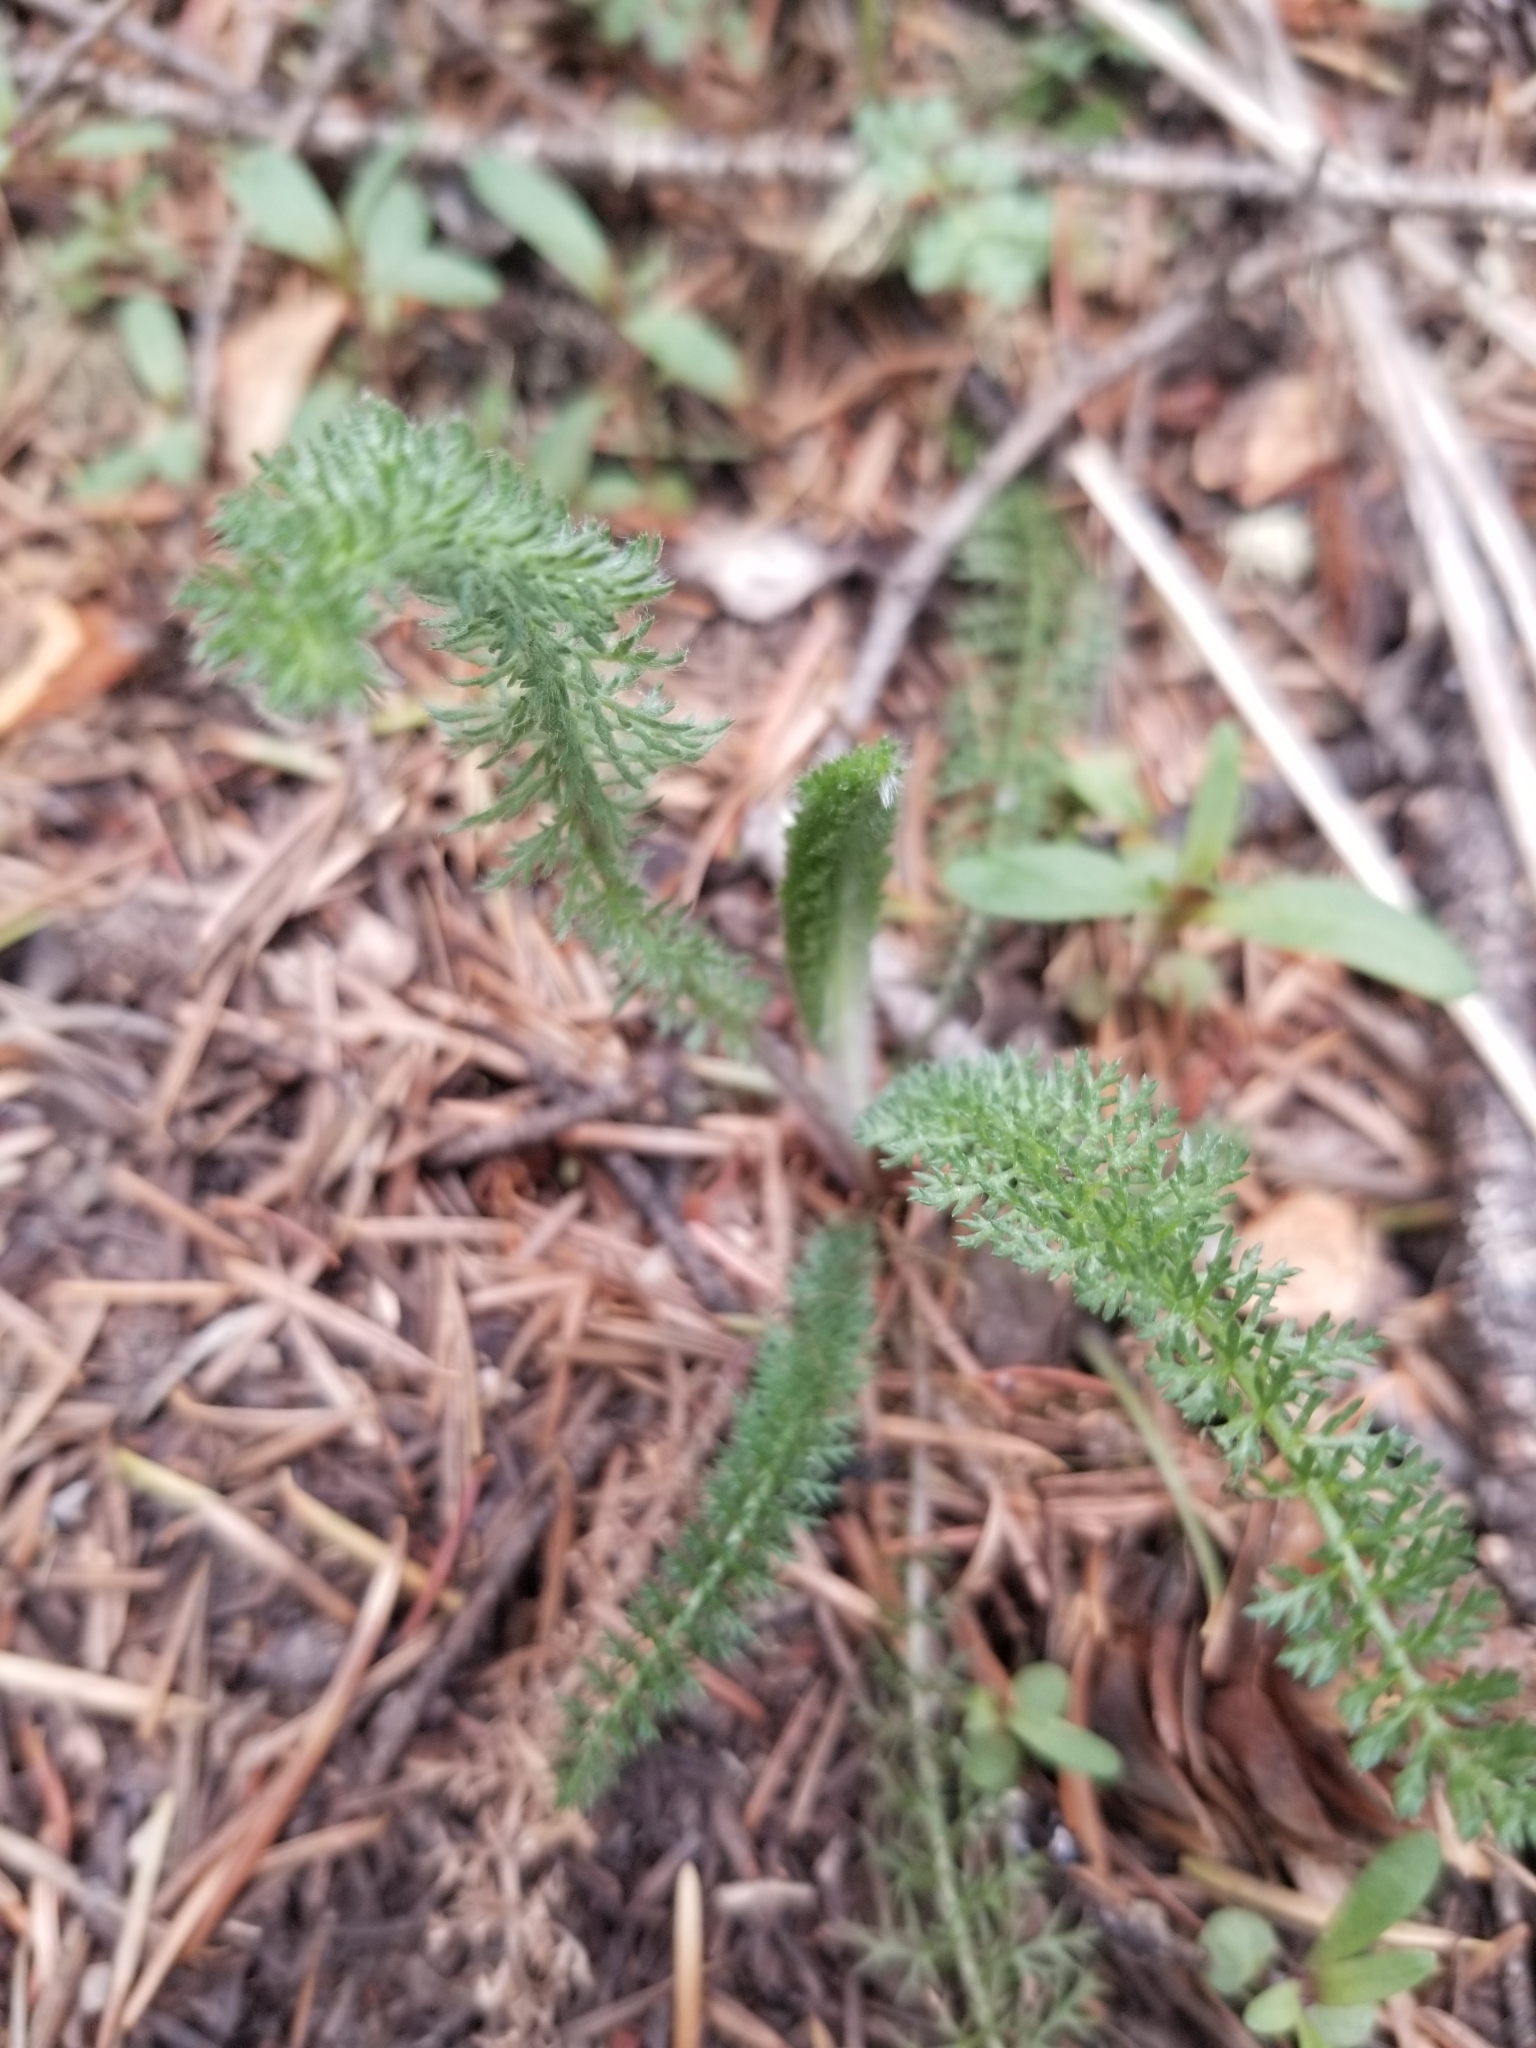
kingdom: Plantae
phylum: Tracheophyta
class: Magnoliopsida
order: Asterales
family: Asteraceae
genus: Achillea
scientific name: Achillea millefolium
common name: Yarrow
